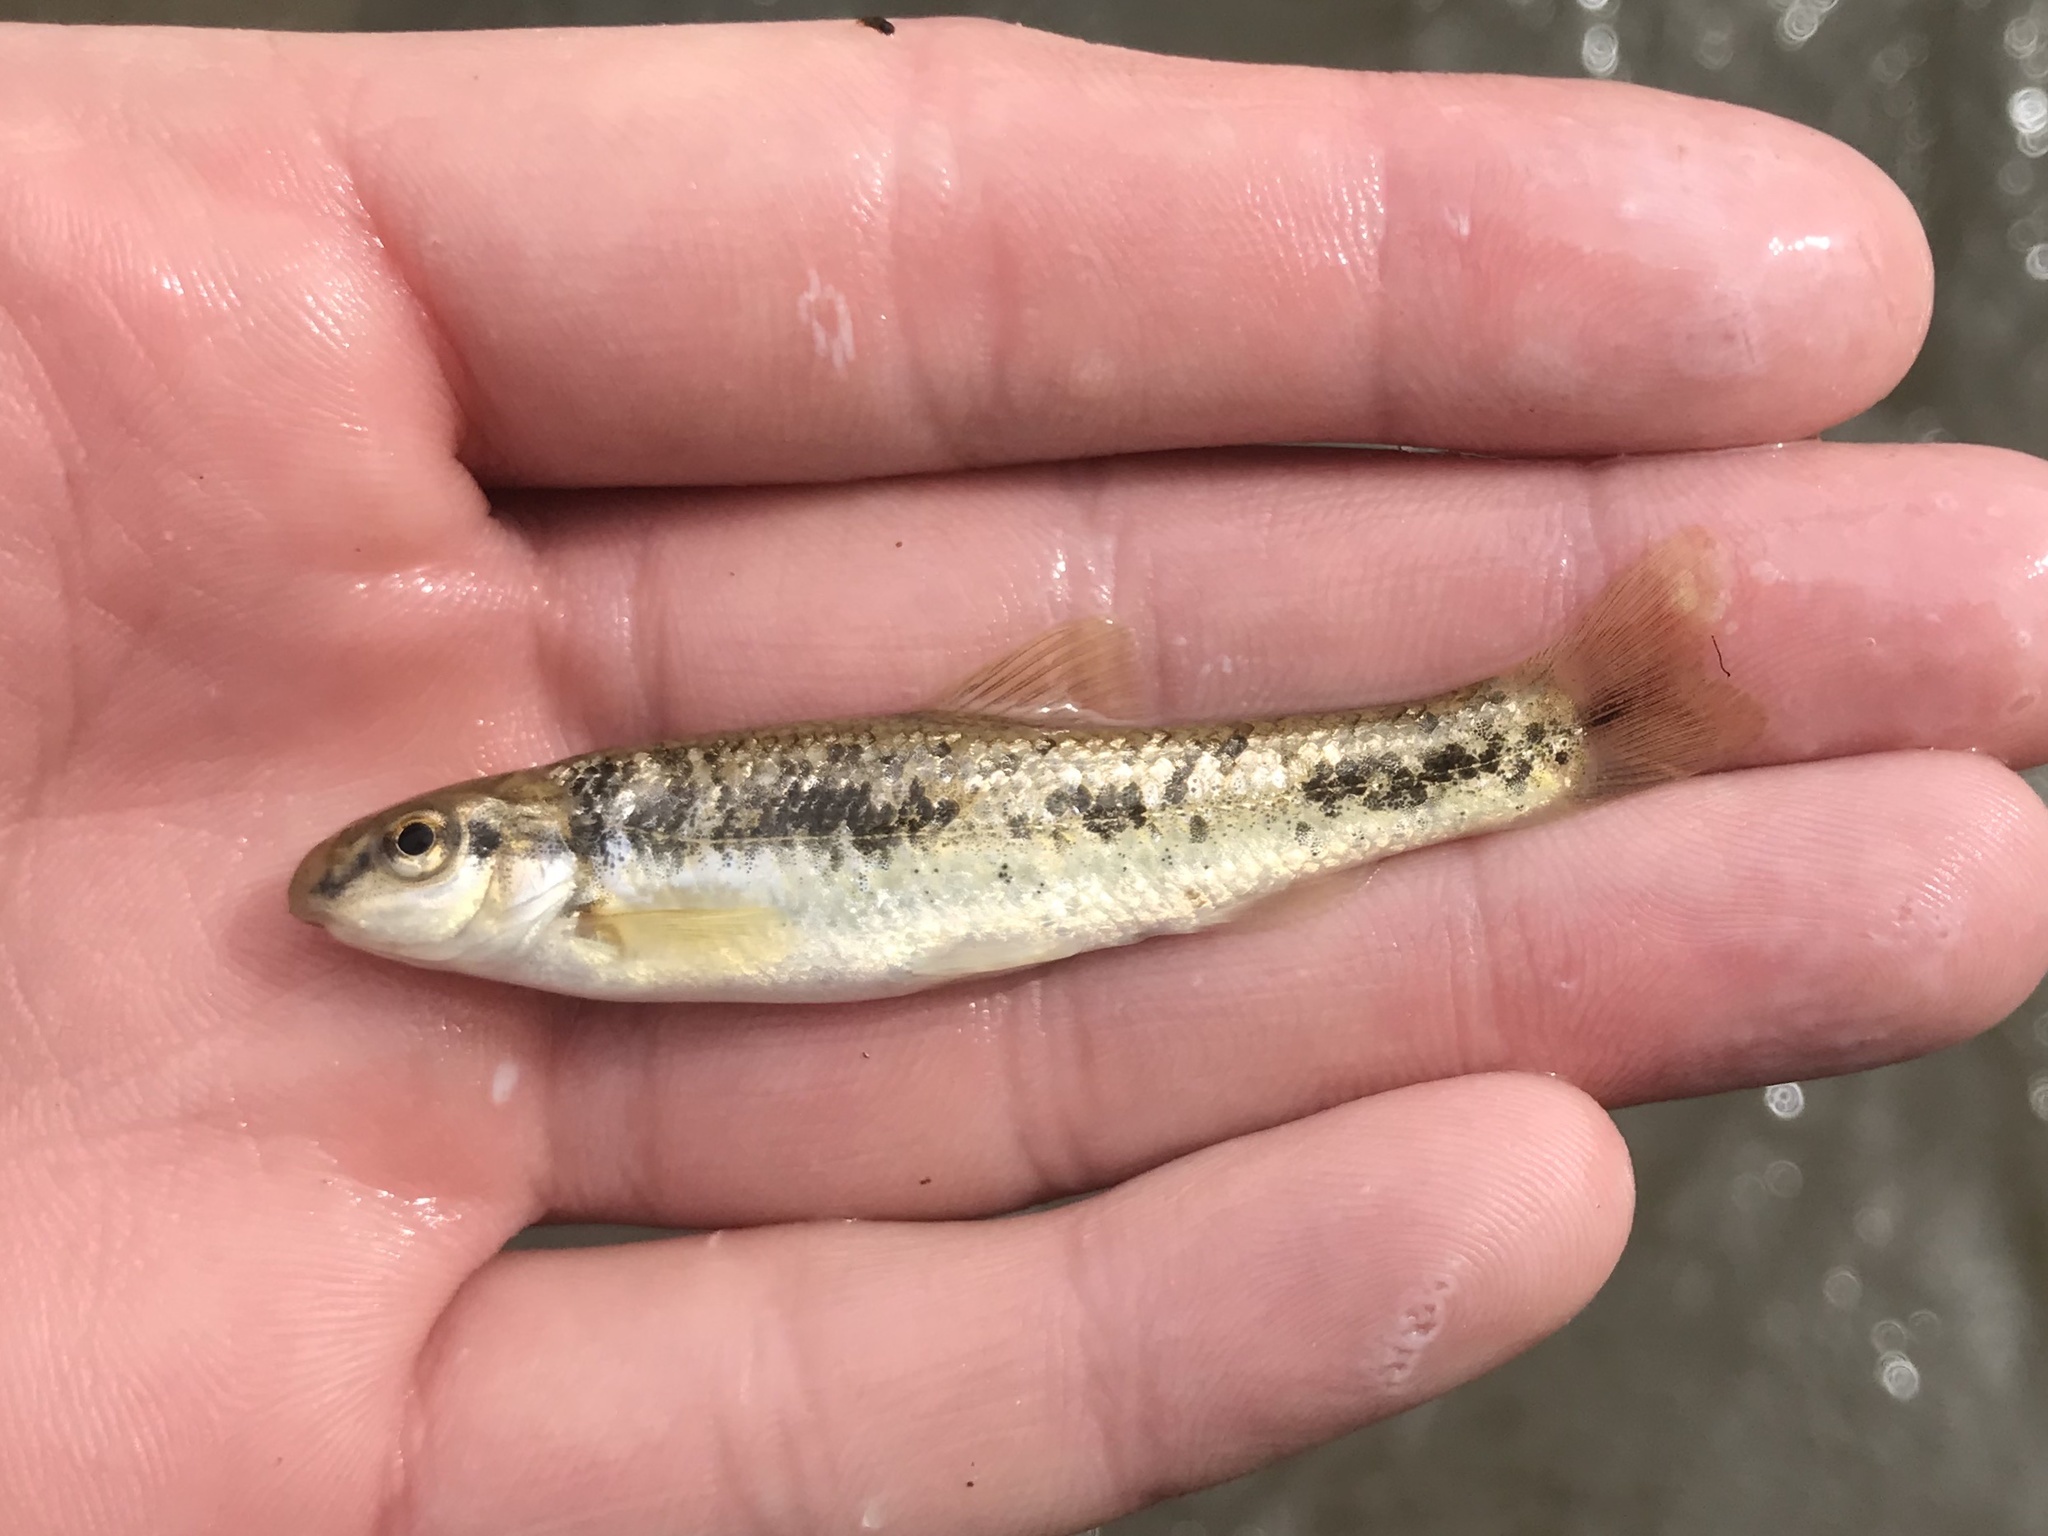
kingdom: Animalia
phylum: Chordata
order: Cypriniformes
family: Cyprinidae
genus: Campostoma
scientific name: Campostoma anomalum
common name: Central stoneroller
